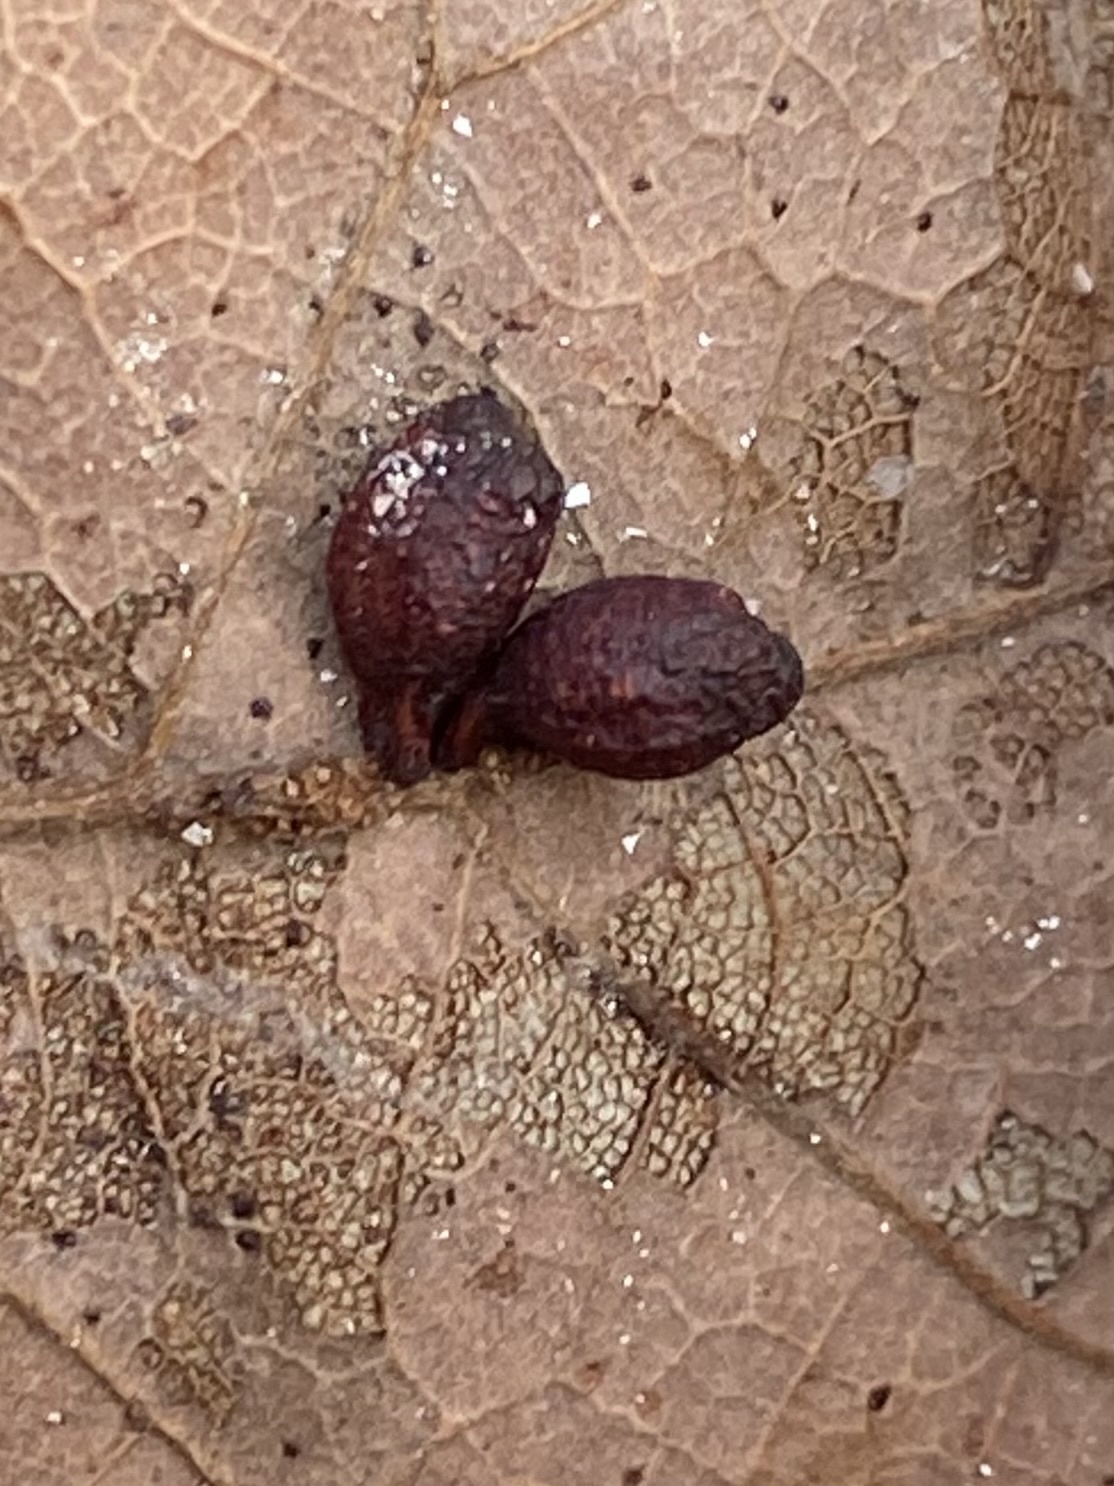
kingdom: Animalia
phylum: Arthropoda
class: Insecta
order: Hymenoptera
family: Cynipidae
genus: Andricus
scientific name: Andricus lustrans
